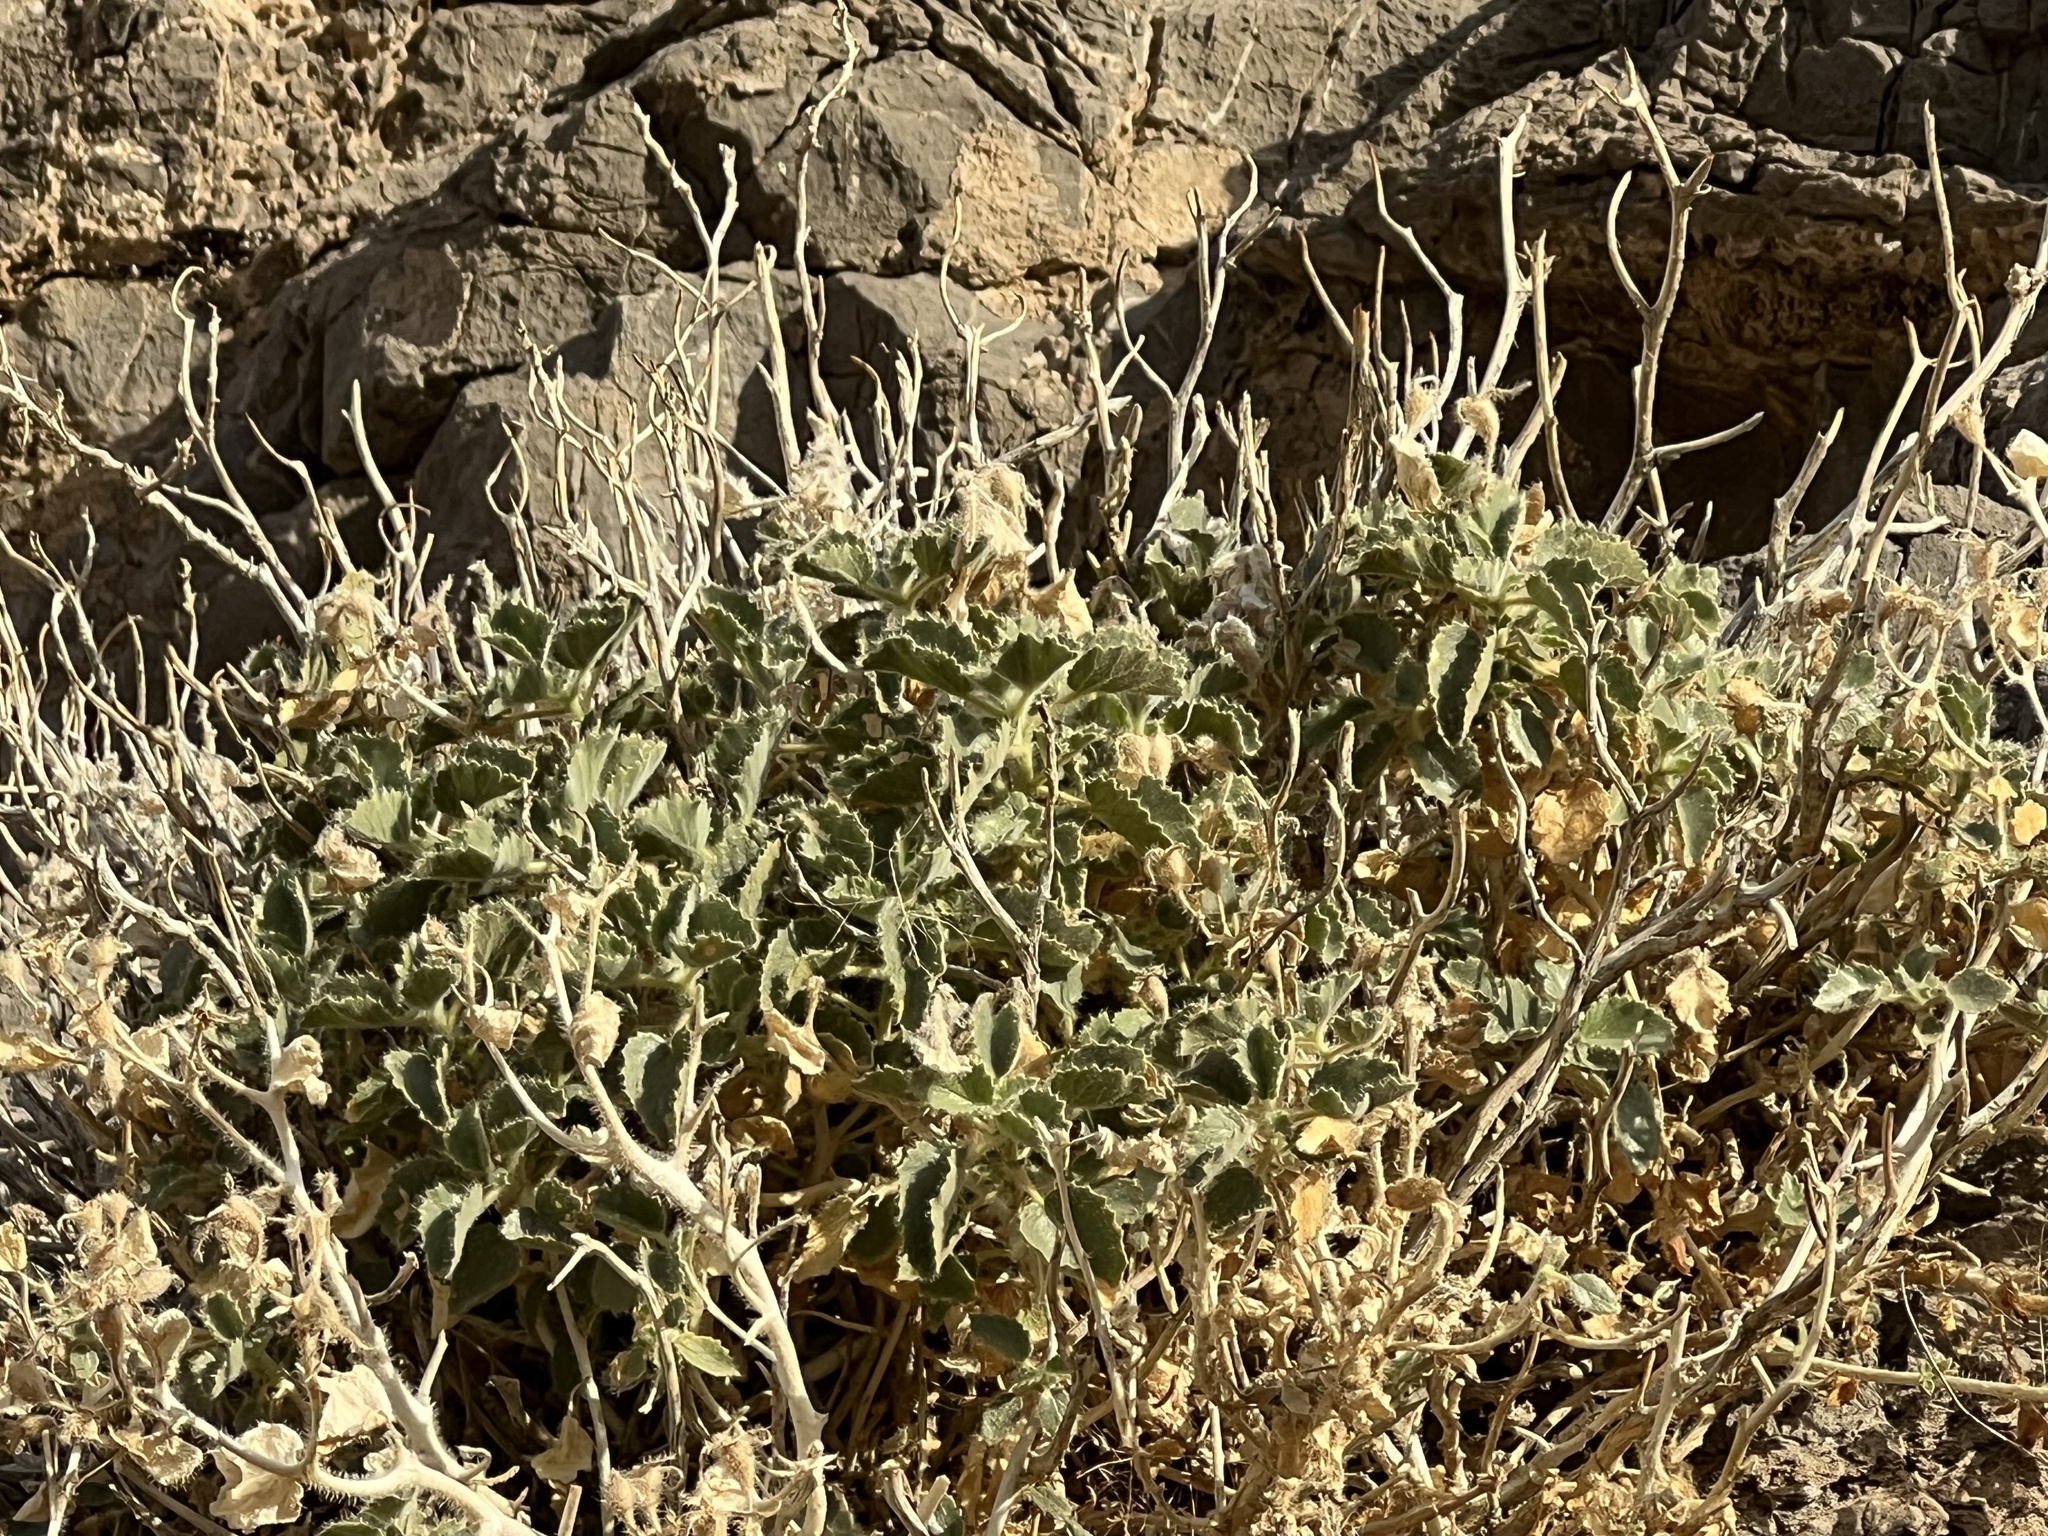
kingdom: Plantae
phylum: Tracheophyta
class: Magnoliopsida
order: Cornales
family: Loasaceae
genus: Eucnide
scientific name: Eucnide urens
